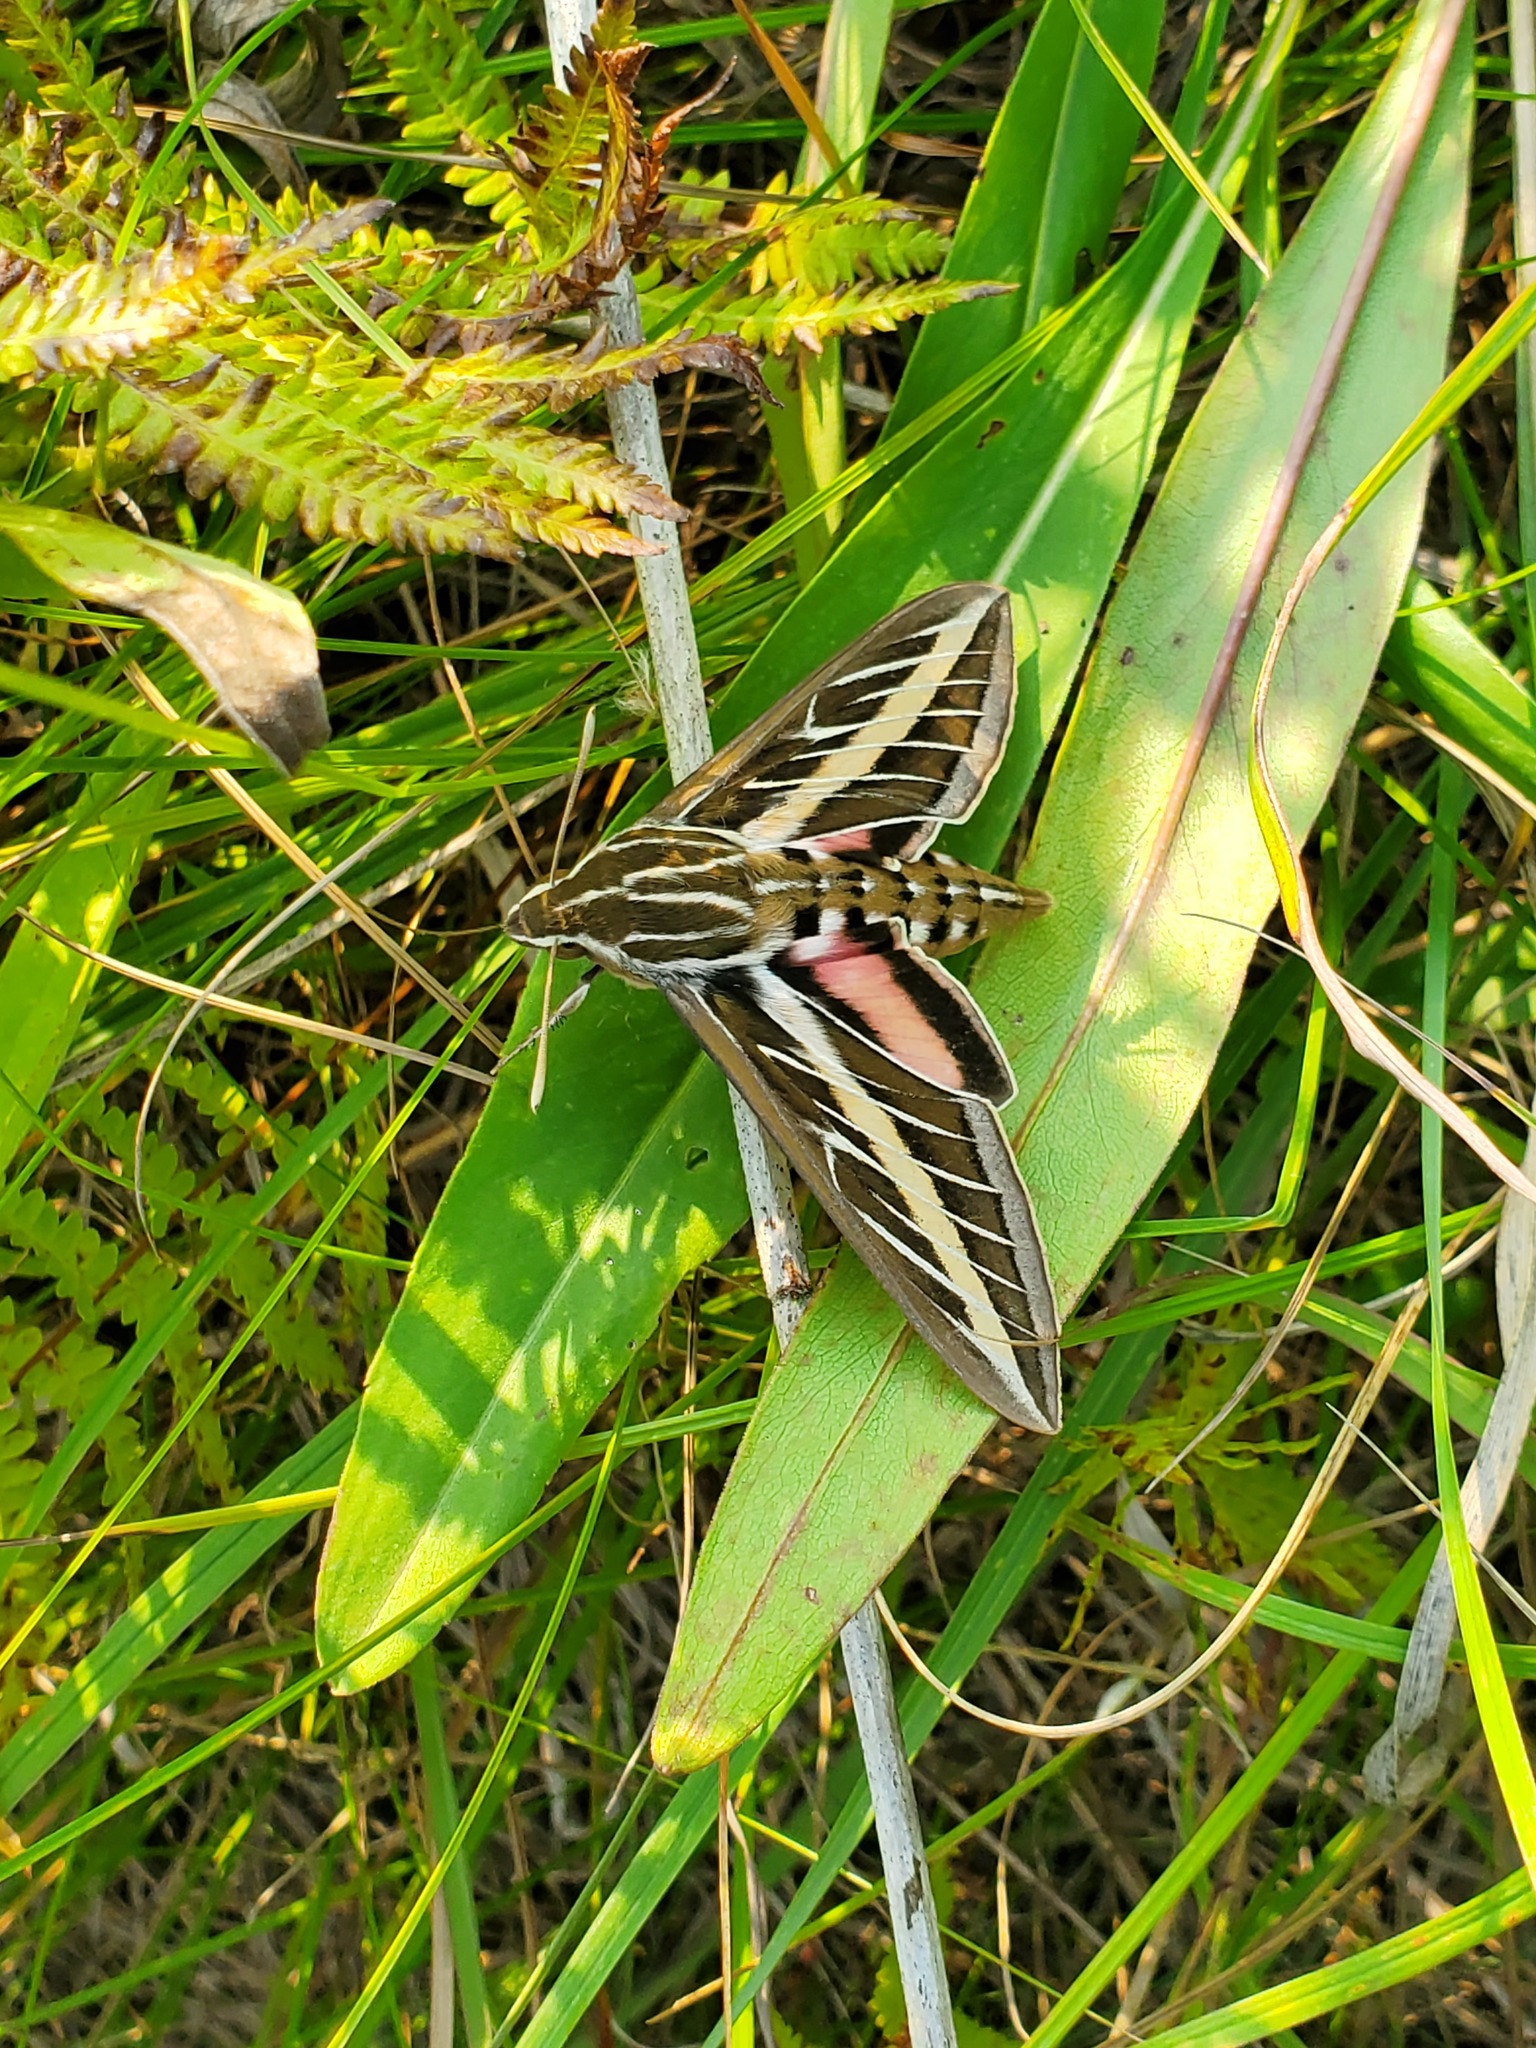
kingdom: Animalia
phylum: Arthropoda
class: Insecta
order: Lepidoptera
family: Sphingidae
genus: Hyles
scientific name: Hyles lineata
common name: White-lined sphinx
